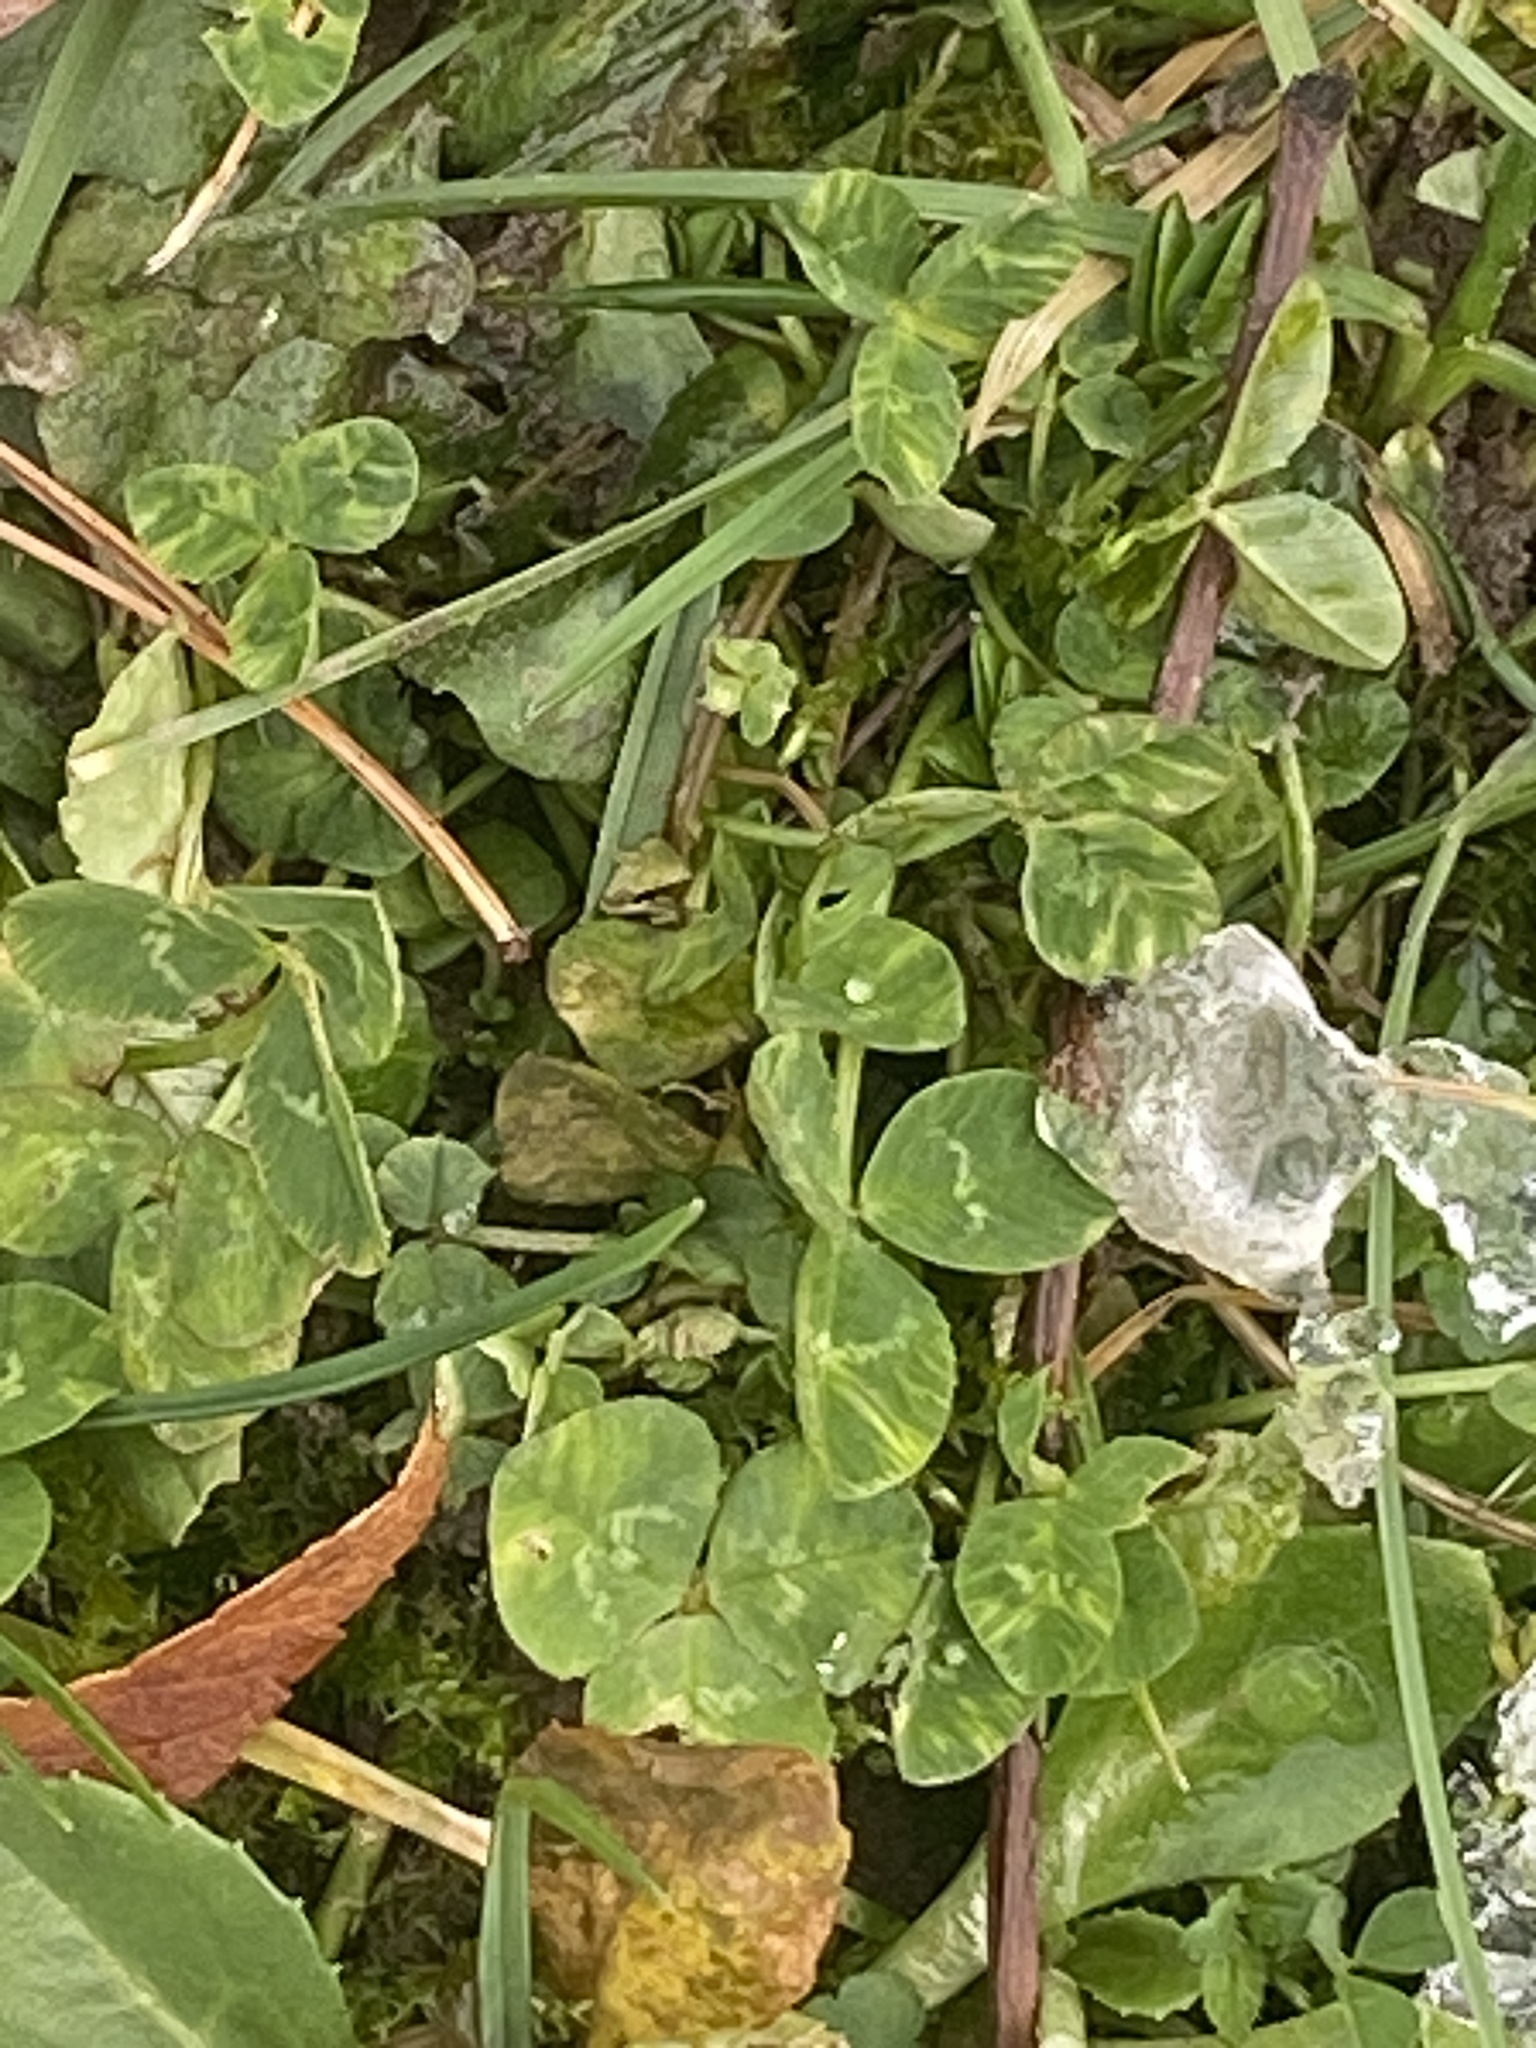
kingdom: Plantae
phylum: Tracheophyta
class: Magnoliopsida
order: Fabales
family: Fabaceae
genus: Trifolium
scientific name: Trifolium repens
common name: White clover
